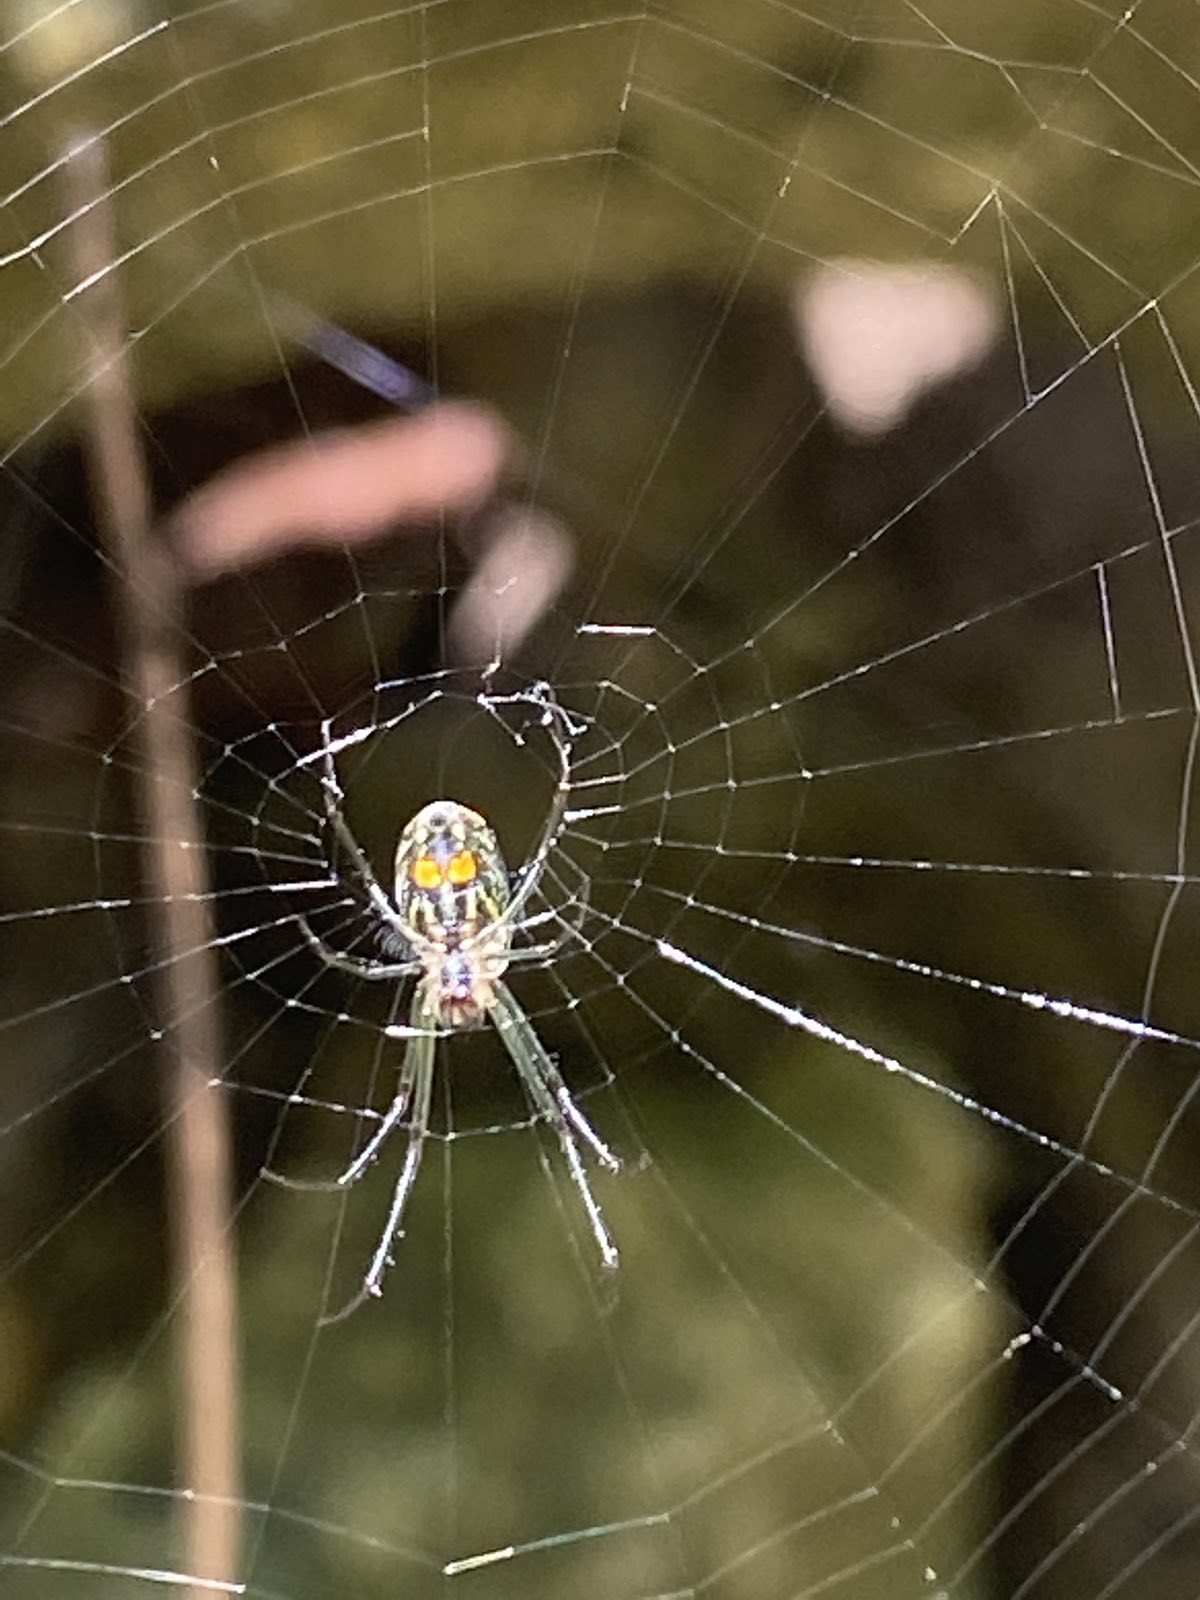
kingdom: Animalia
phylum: Arthropoda
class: Arachnida
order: Araneae
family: Tetragnathidae
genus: Leucauge
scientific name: Leucauge regnyi
